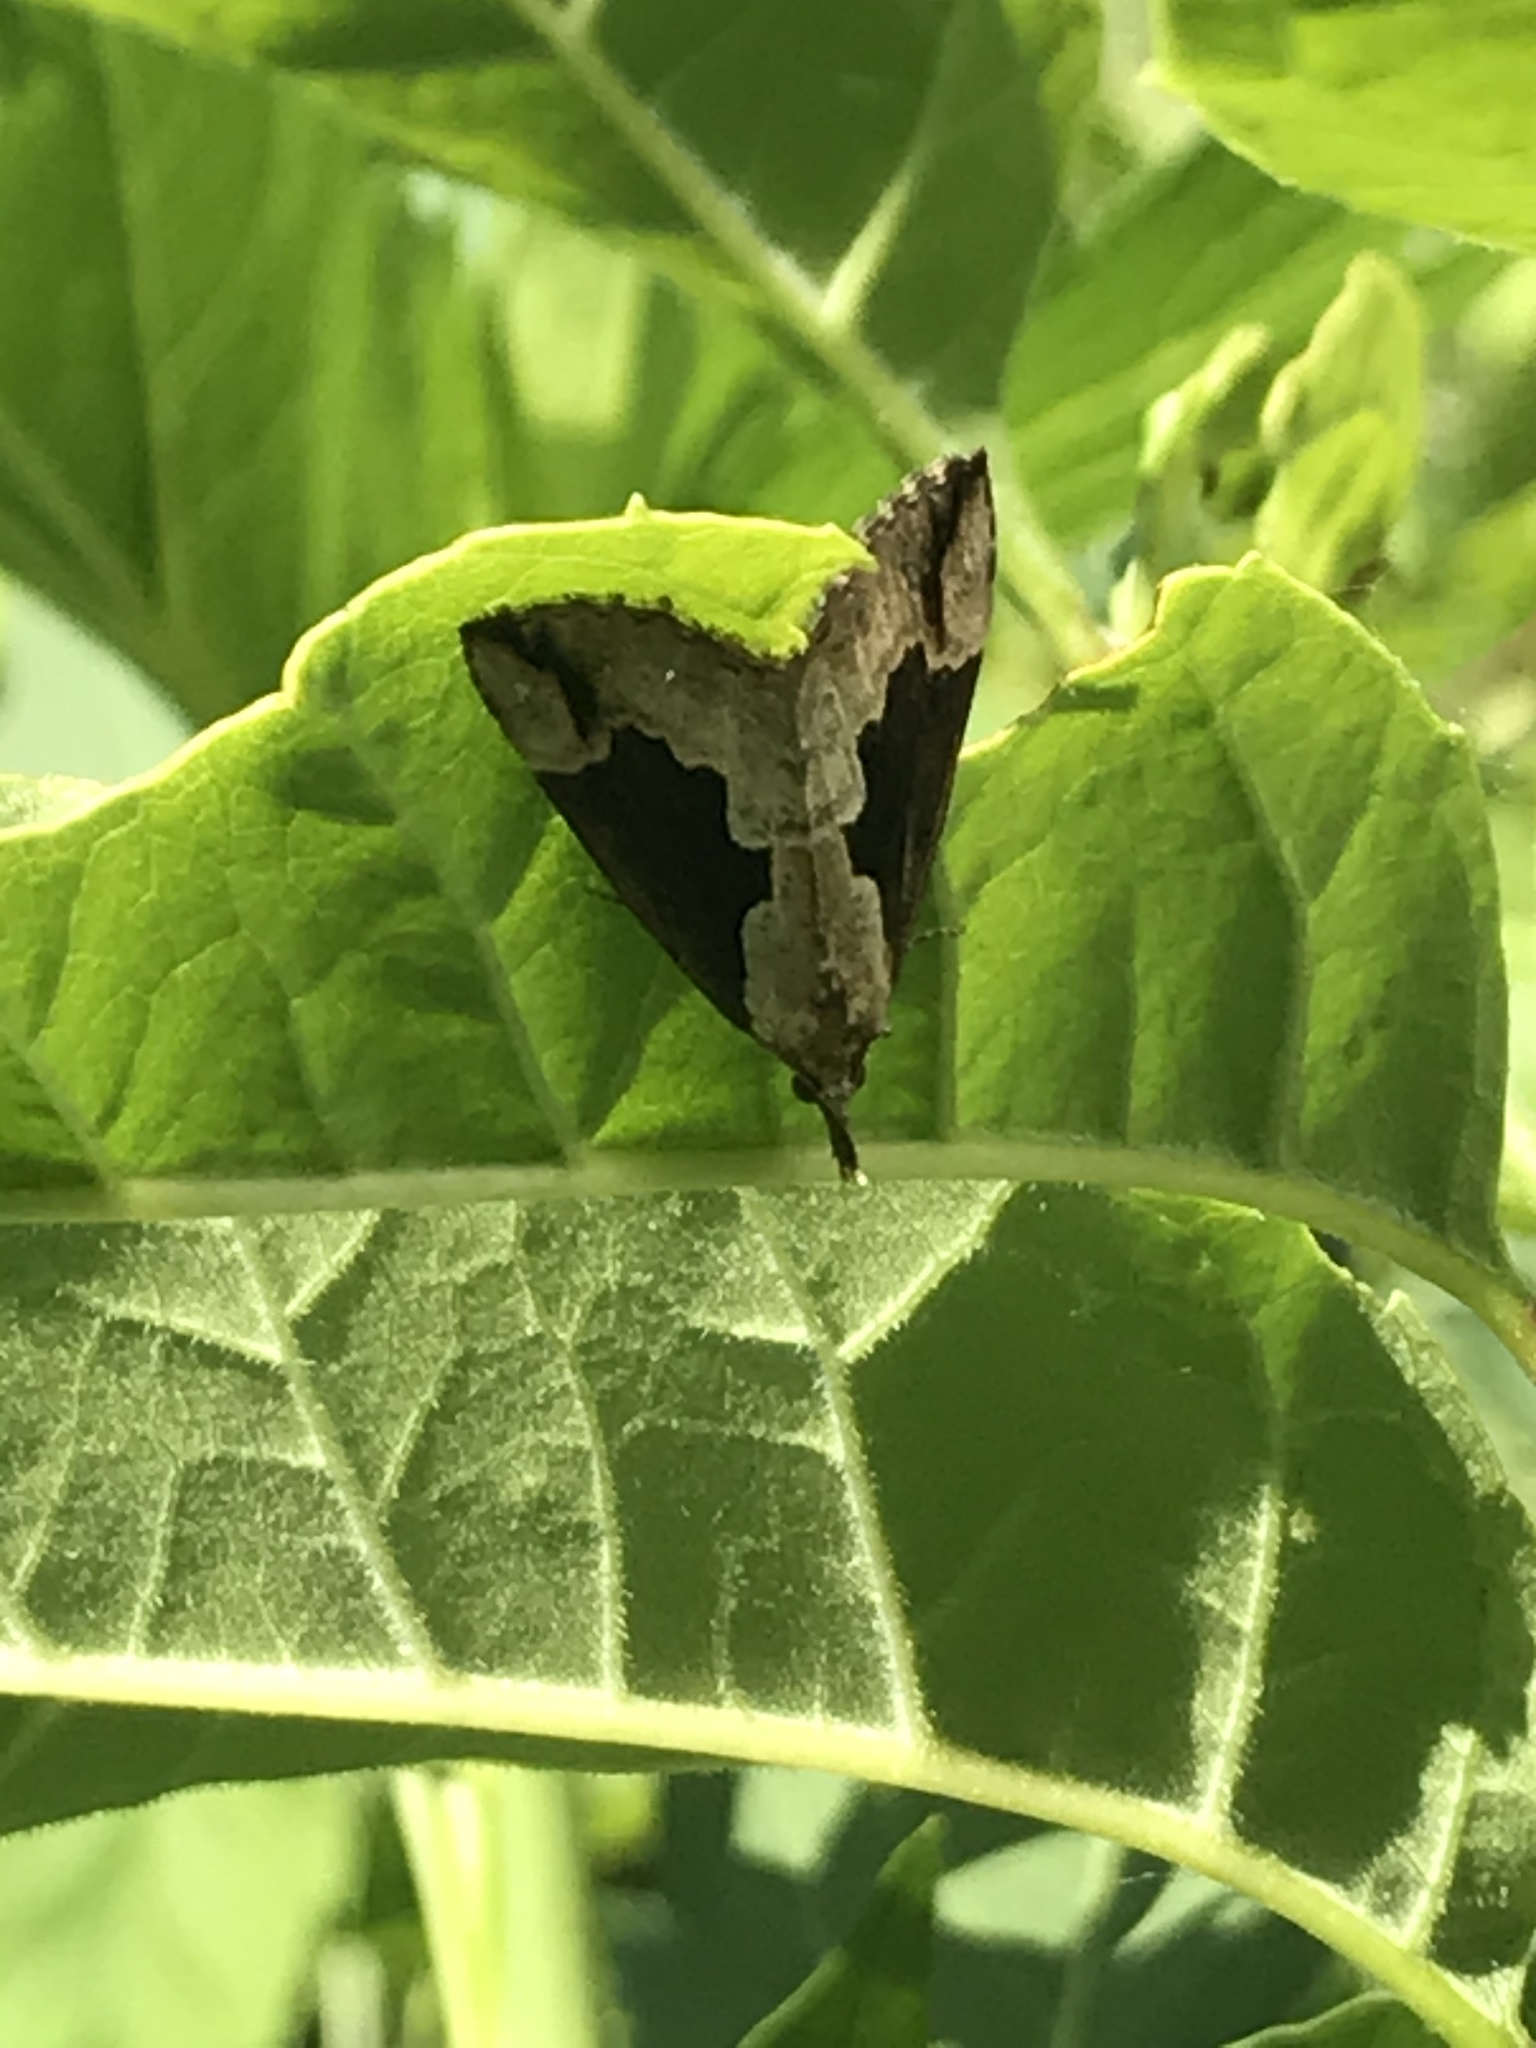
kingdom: Animalia
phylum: Arthropoda
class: Insecta
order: Lepidoptera
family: Erebidae
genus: Hypena
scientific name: Hypena baltimoralis
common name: Baltimore snout
